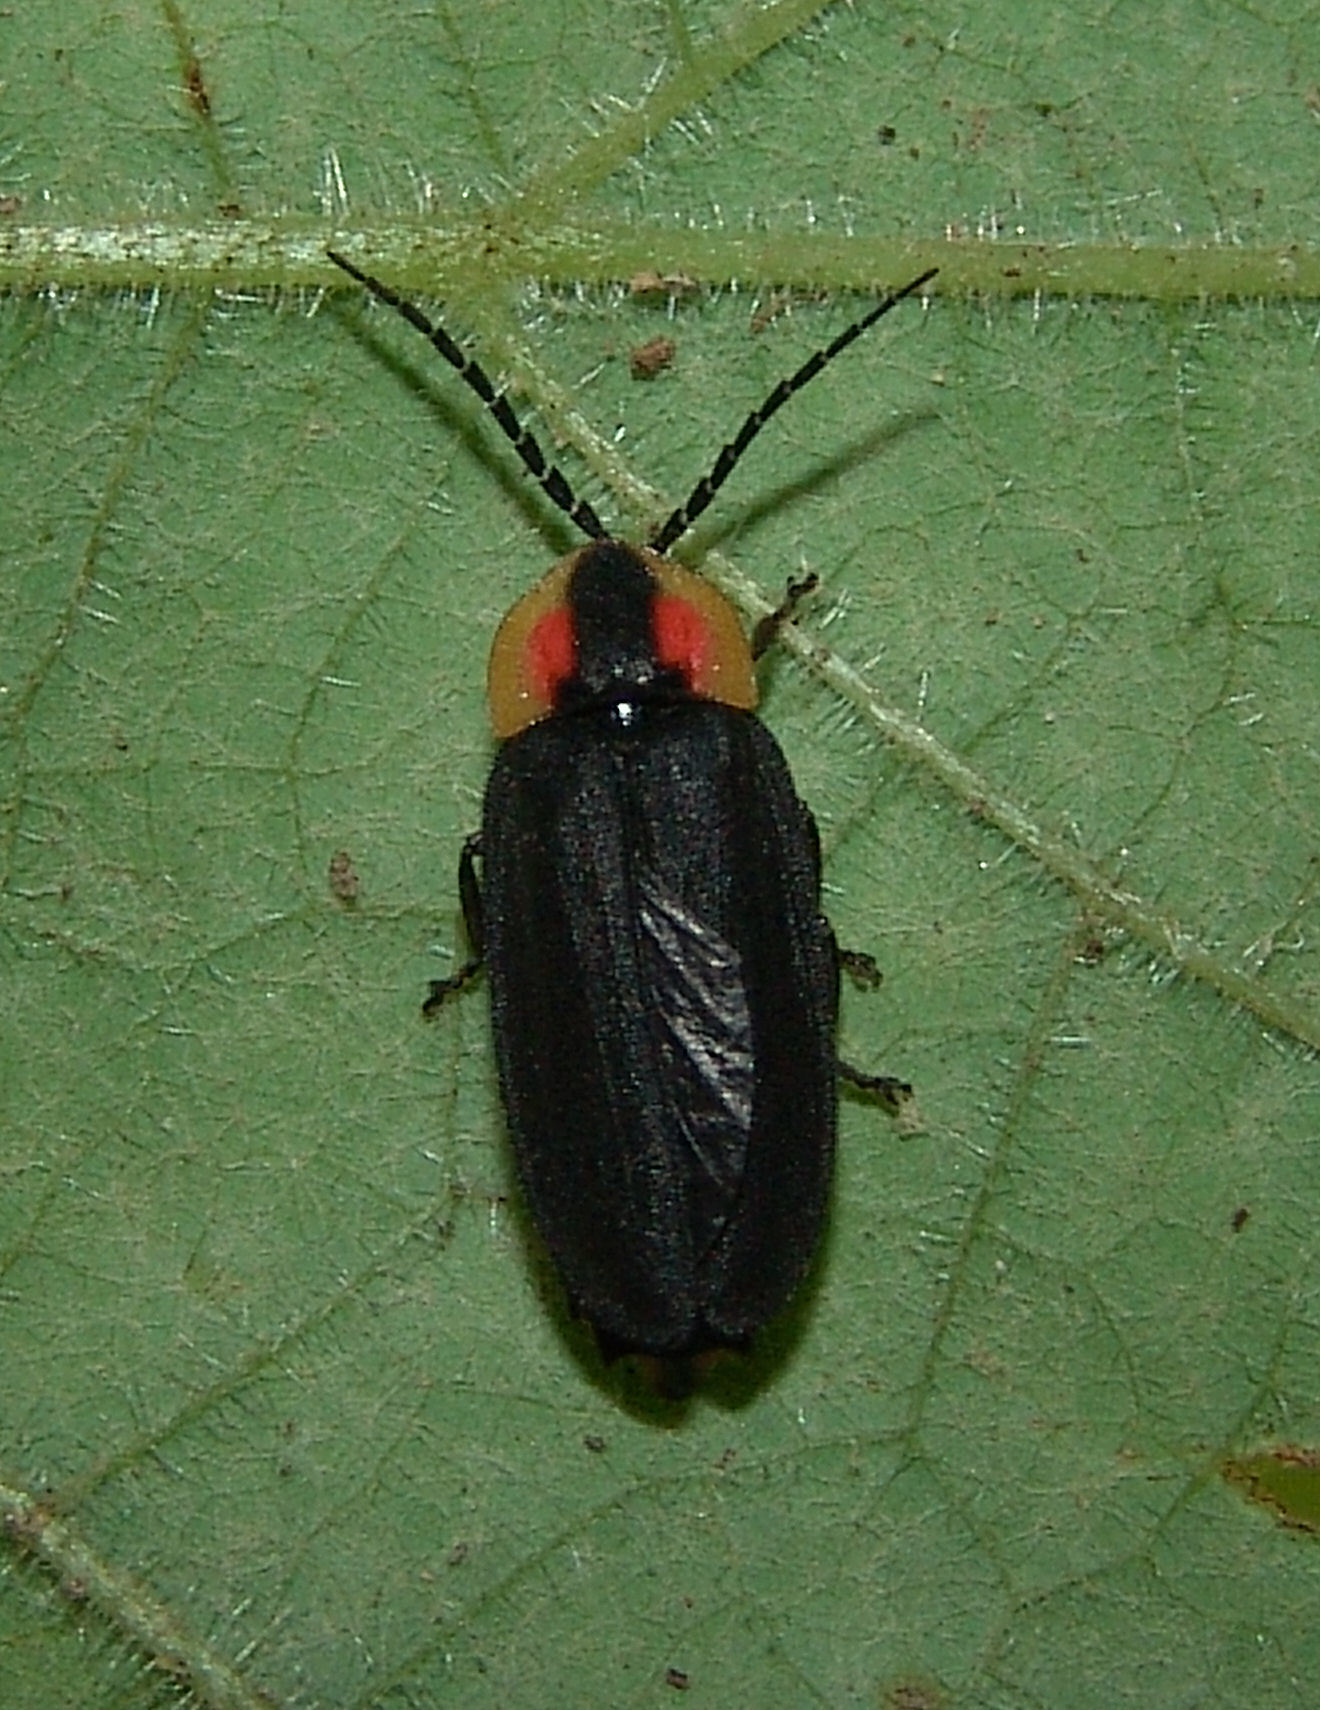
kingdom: Animalia
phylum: Arthropoda
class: Insecta
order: Coleoptera
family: Lampyridae
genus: Lucidota
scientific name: Lucidota atra
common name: Black firefly
